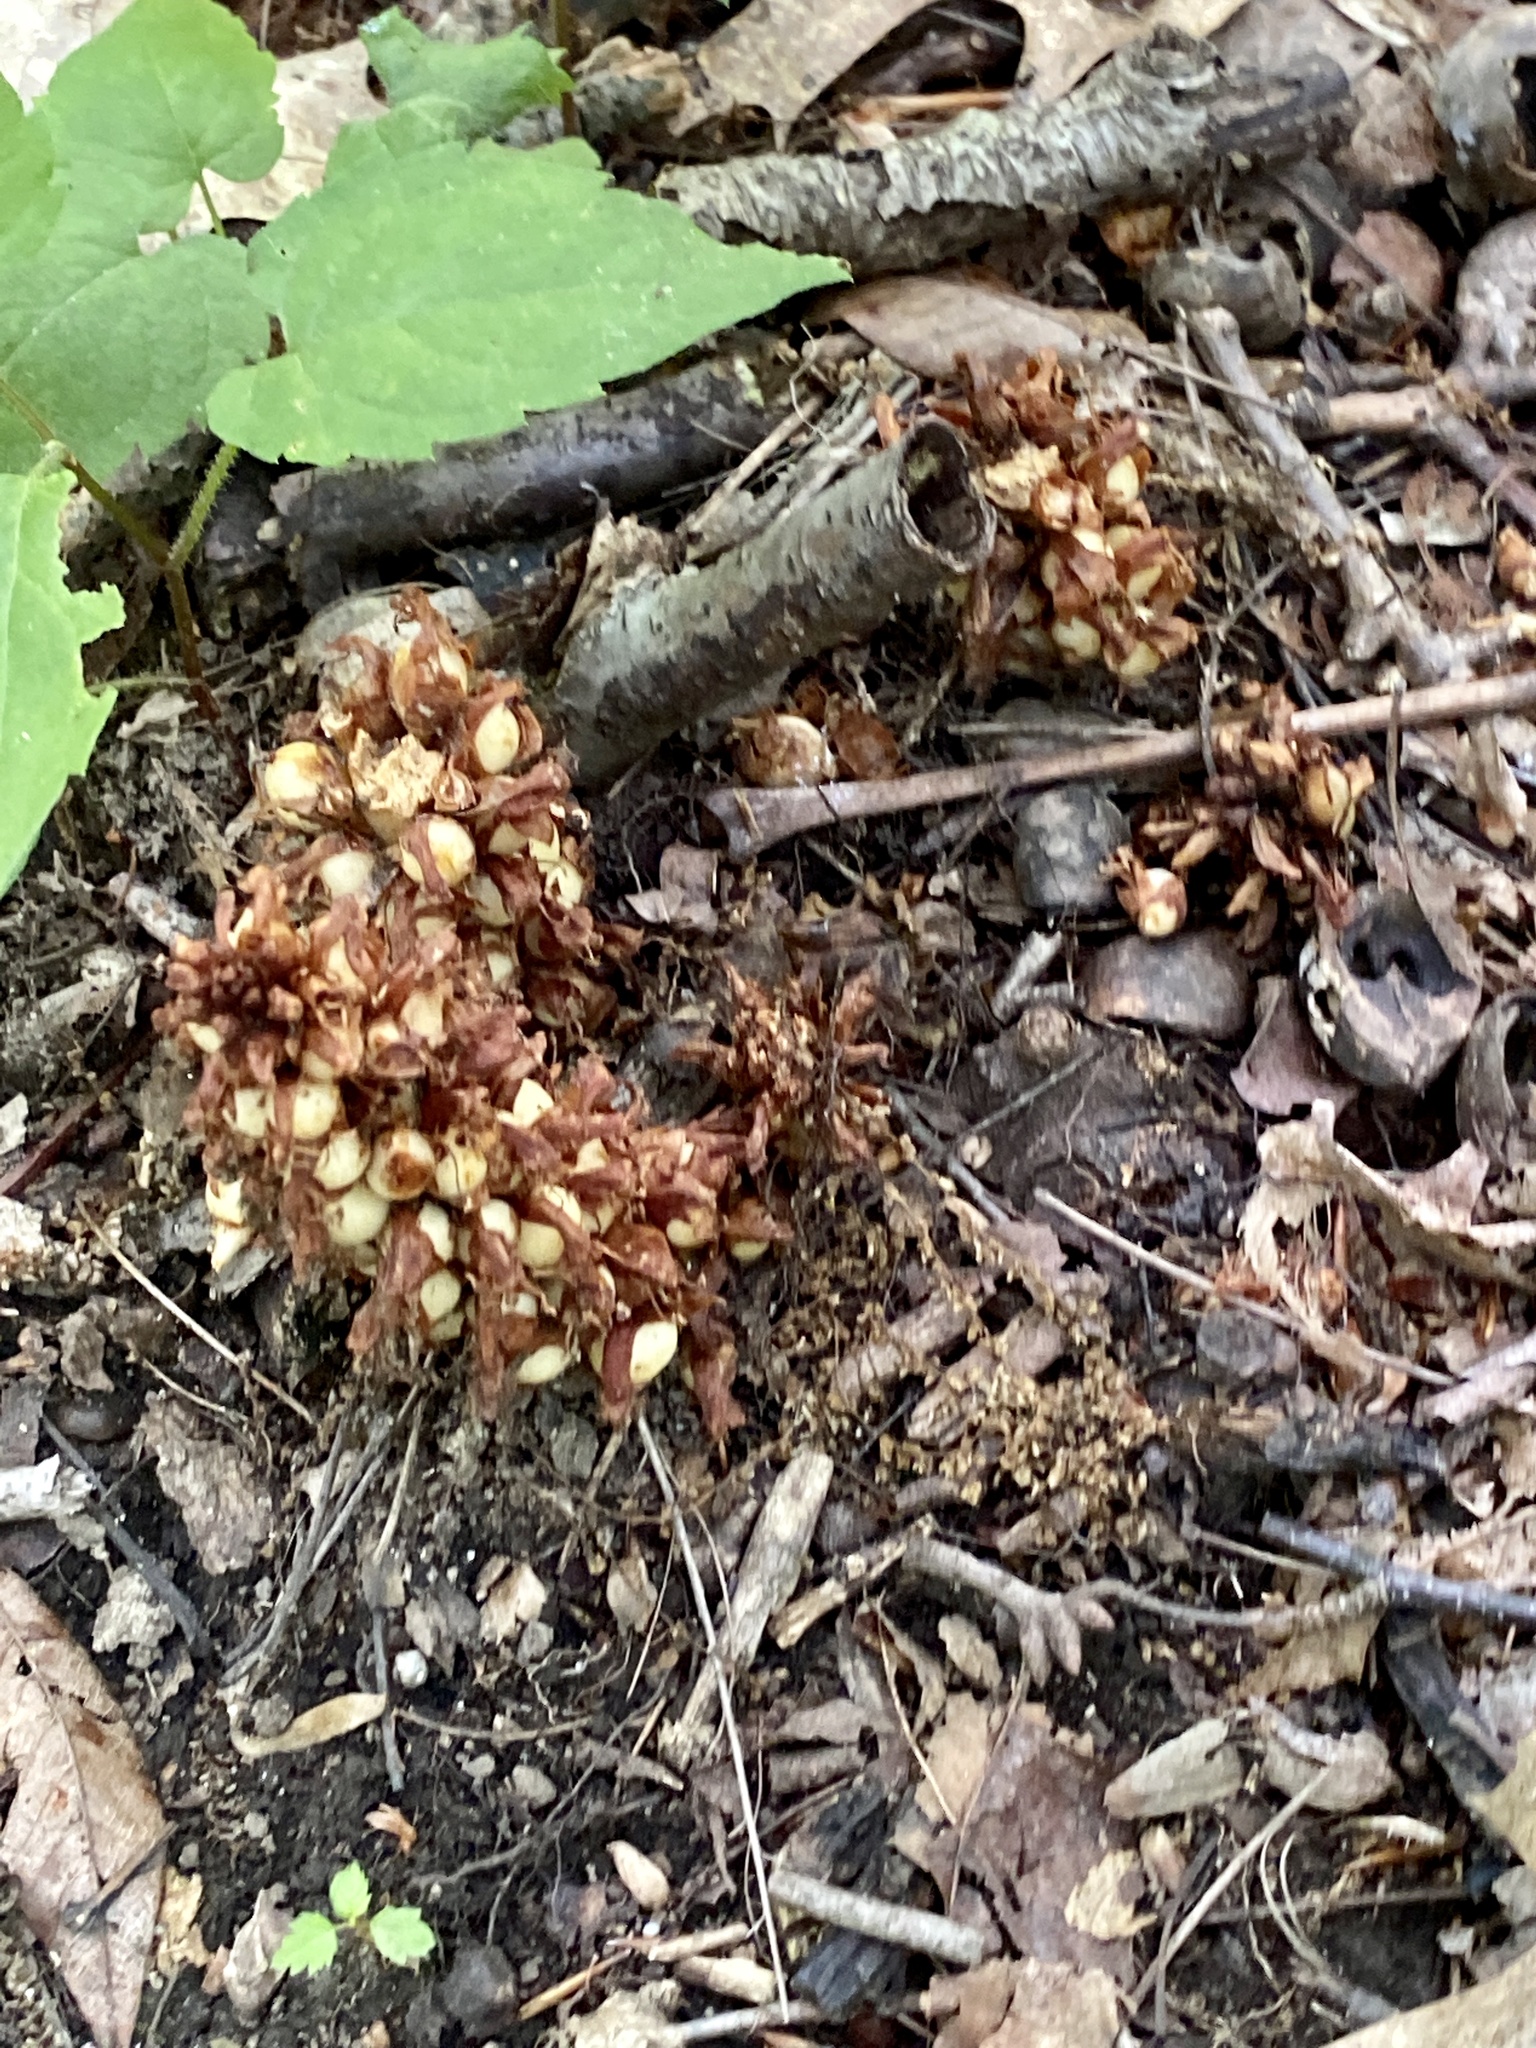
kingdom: Plantae
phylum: Tracheophyta
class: Magnoliopsida
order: Lamiales
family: Orobanchaceae
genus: Conopholis
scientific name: Conopholis americana
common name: American cancer-root
